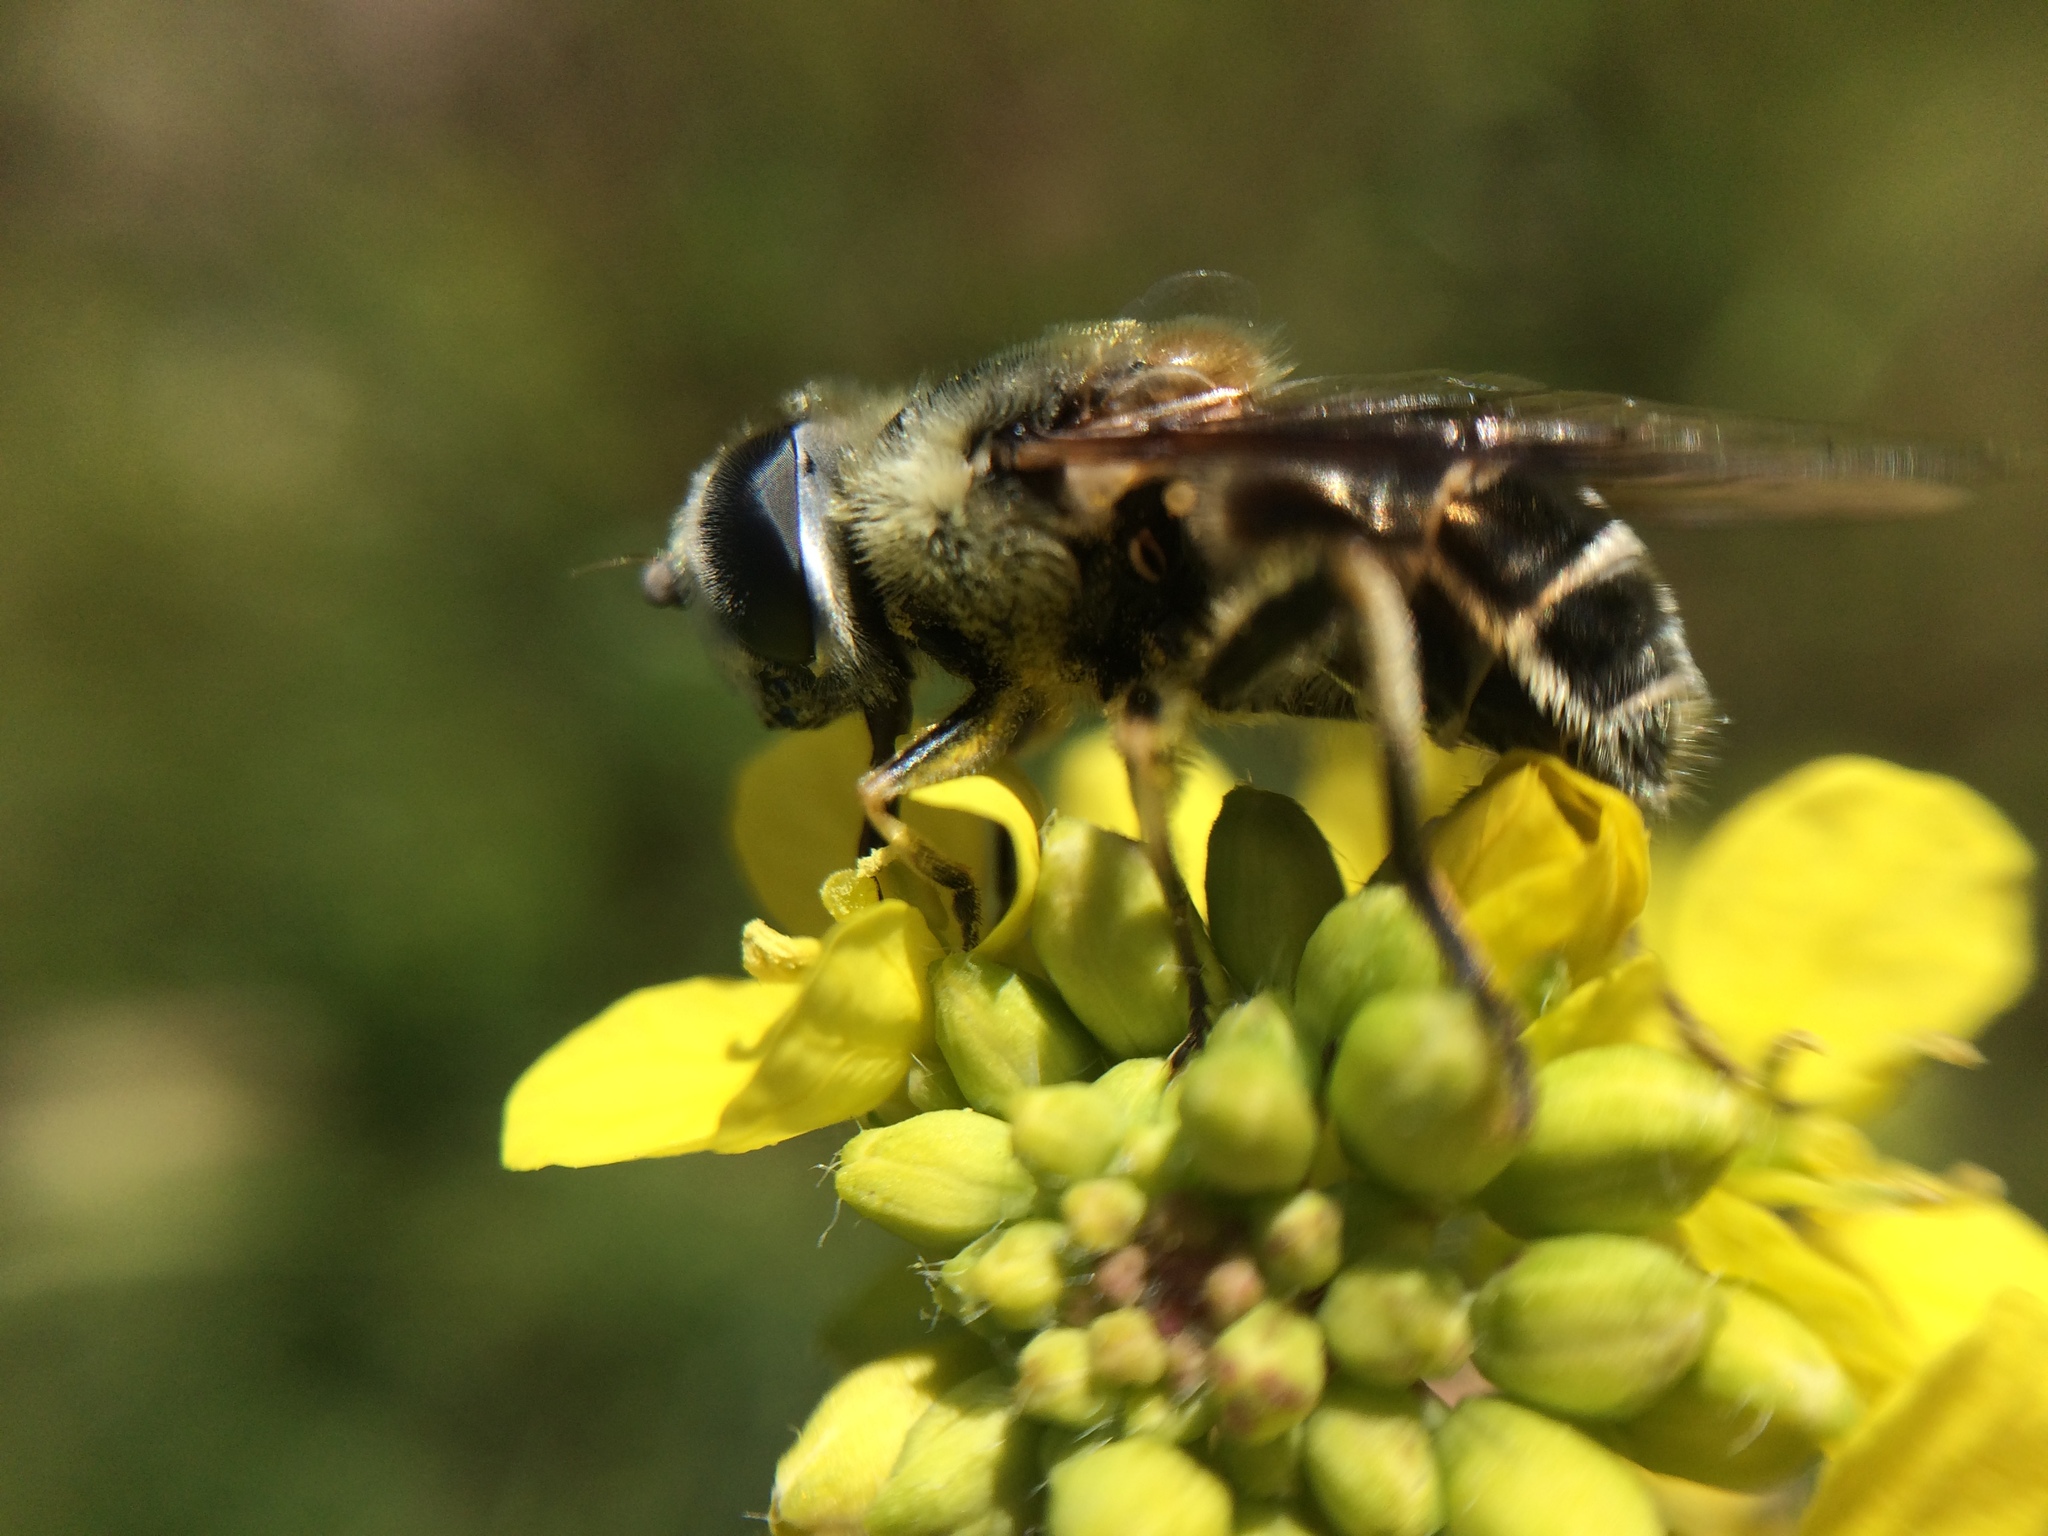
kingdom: Animalia
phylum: Arthropoda
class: Insecta
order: Diptera
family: Syrphidae
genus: Eristalis
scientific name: Eristalis stipator
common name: Yellow-shouldered drone fly
